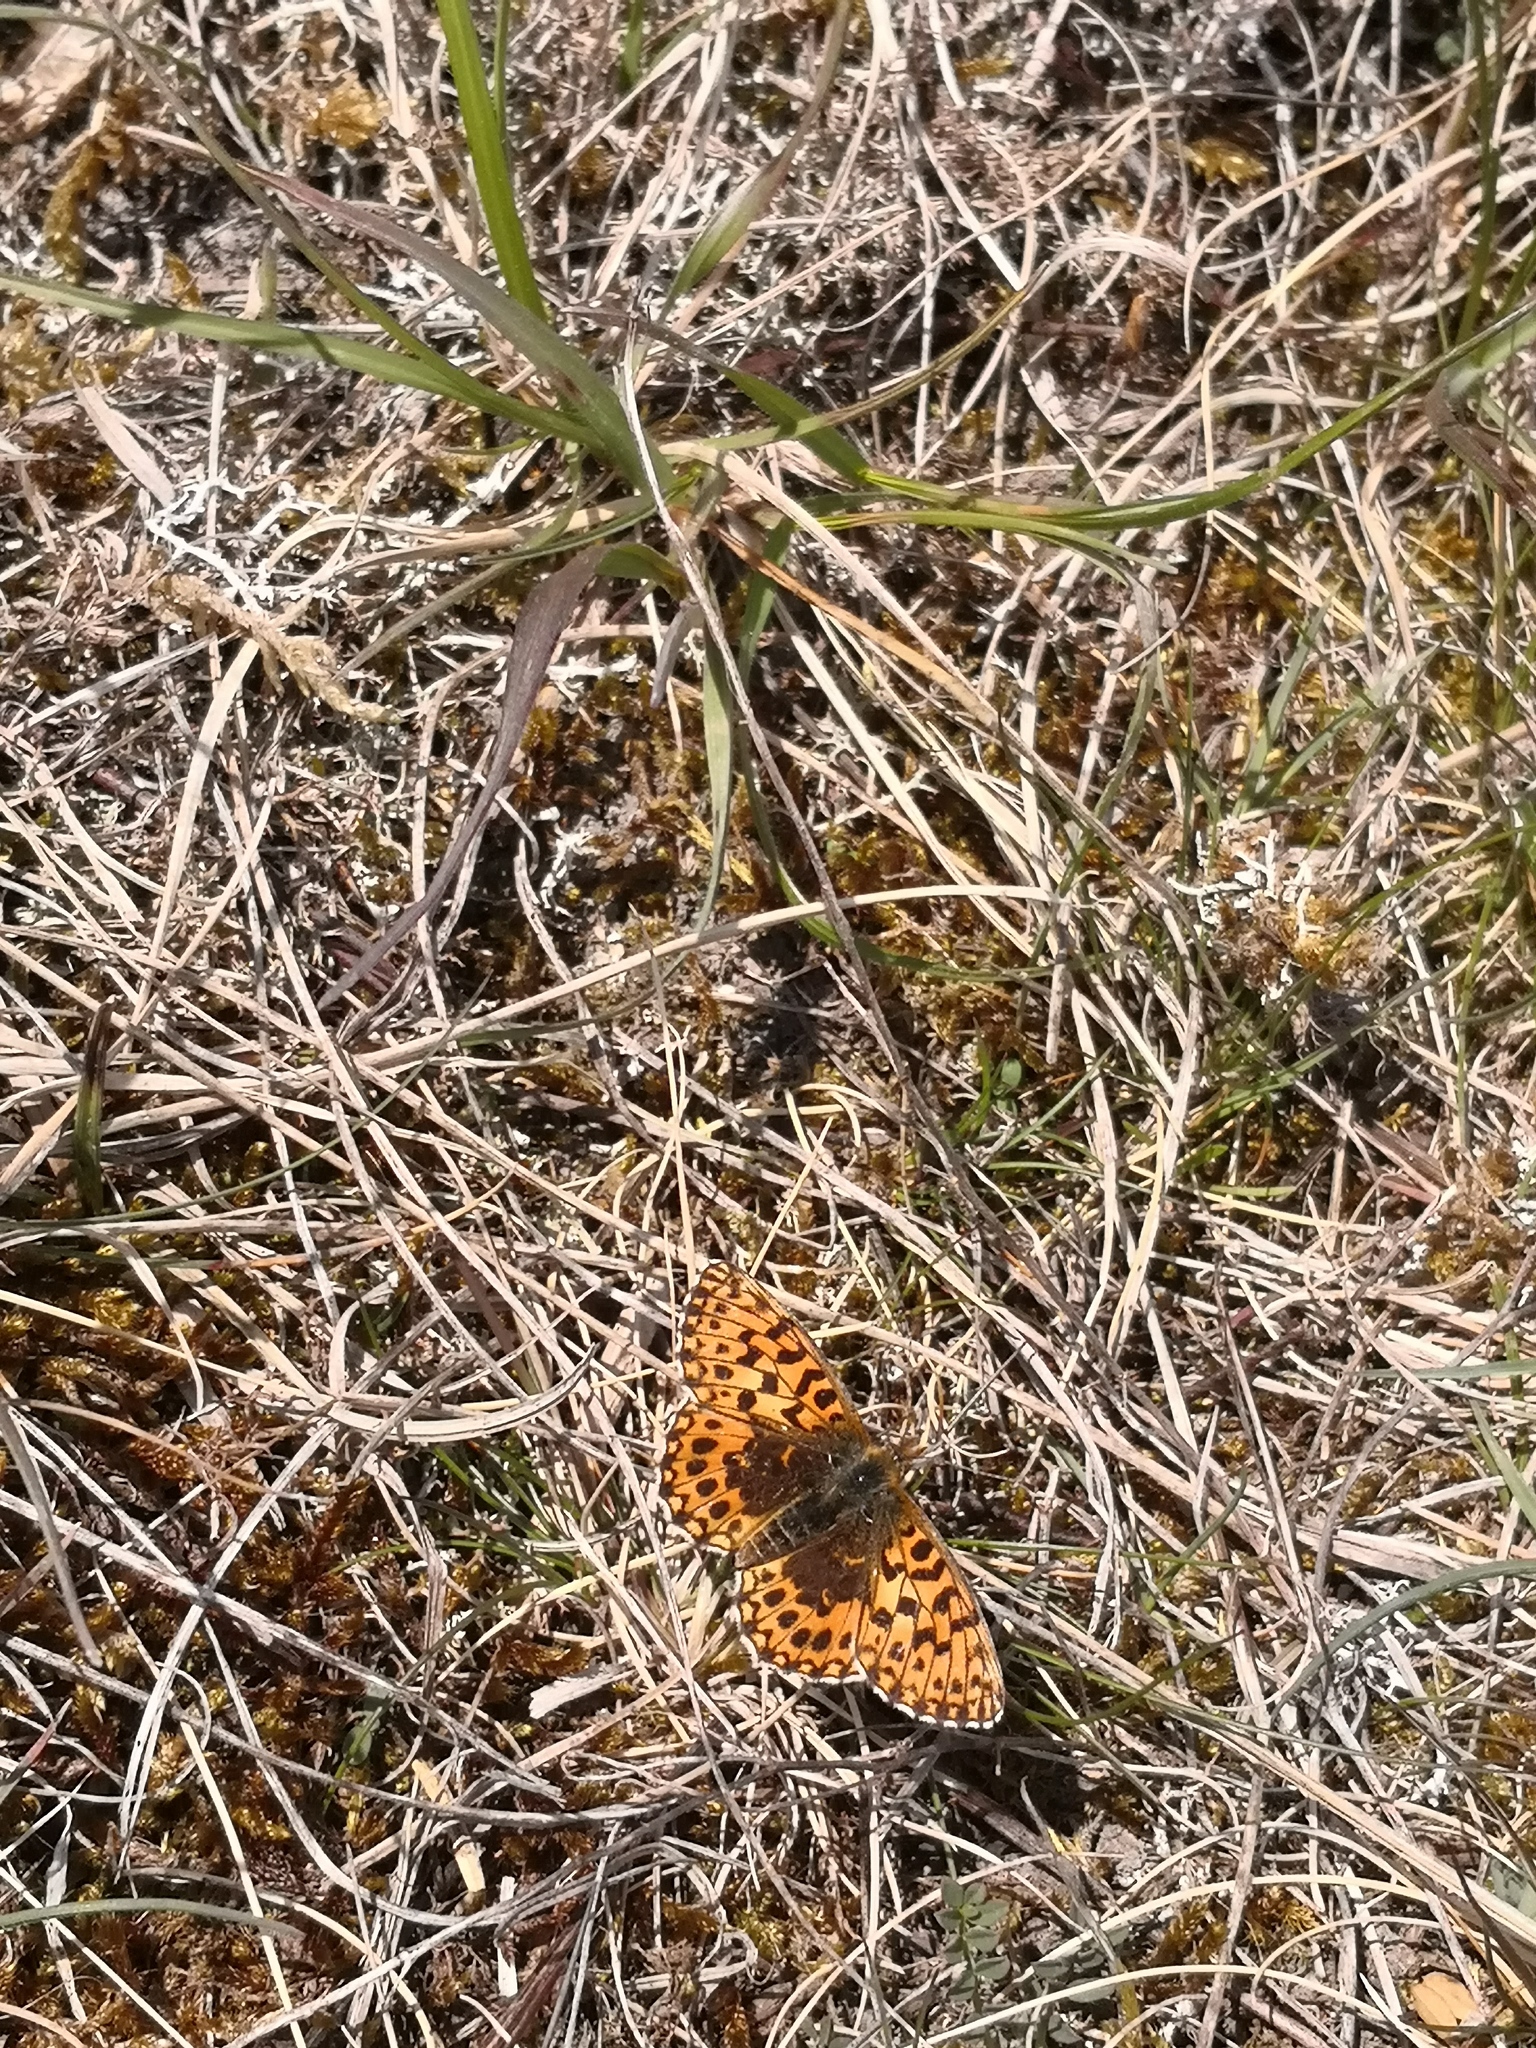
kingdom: Animalia
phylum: Arthropoda
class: Insecta
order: Lepidoptera
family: Nymphalidae
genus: Boloria
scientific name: Boloria dia
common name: Weaver's fritillary
